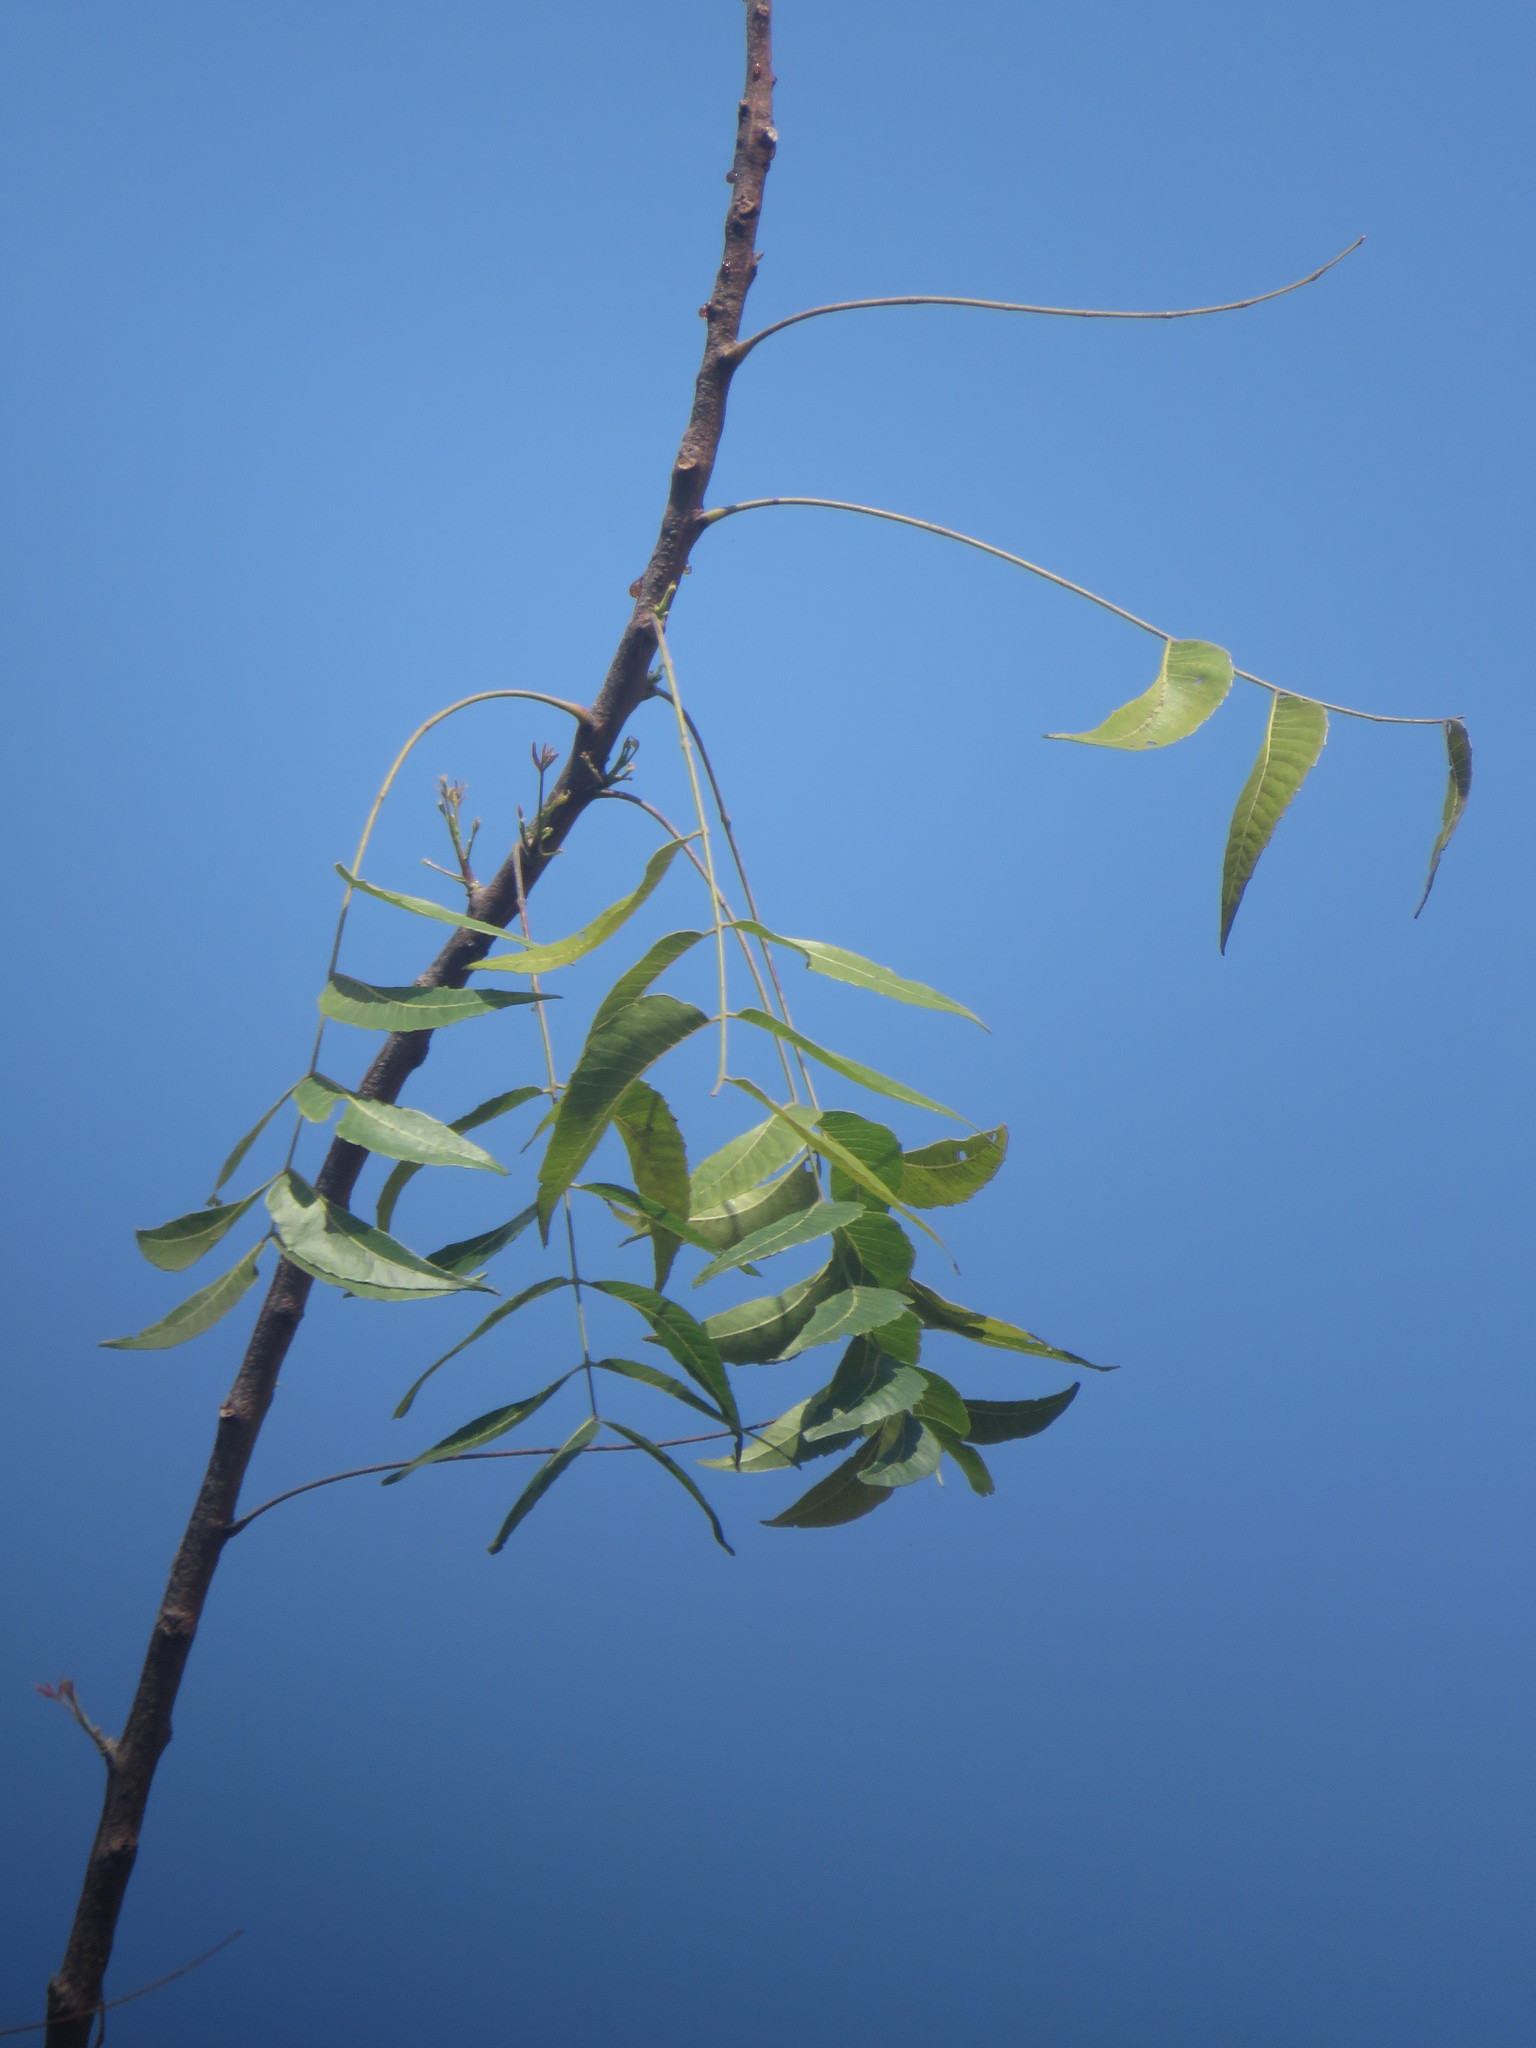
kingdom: Plantae
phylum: Tracheophyta
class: Magnoliopsida
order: Sapindales
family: Meliaceae
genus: Azadirachta
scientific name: Azadirachta indica
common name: Neem
